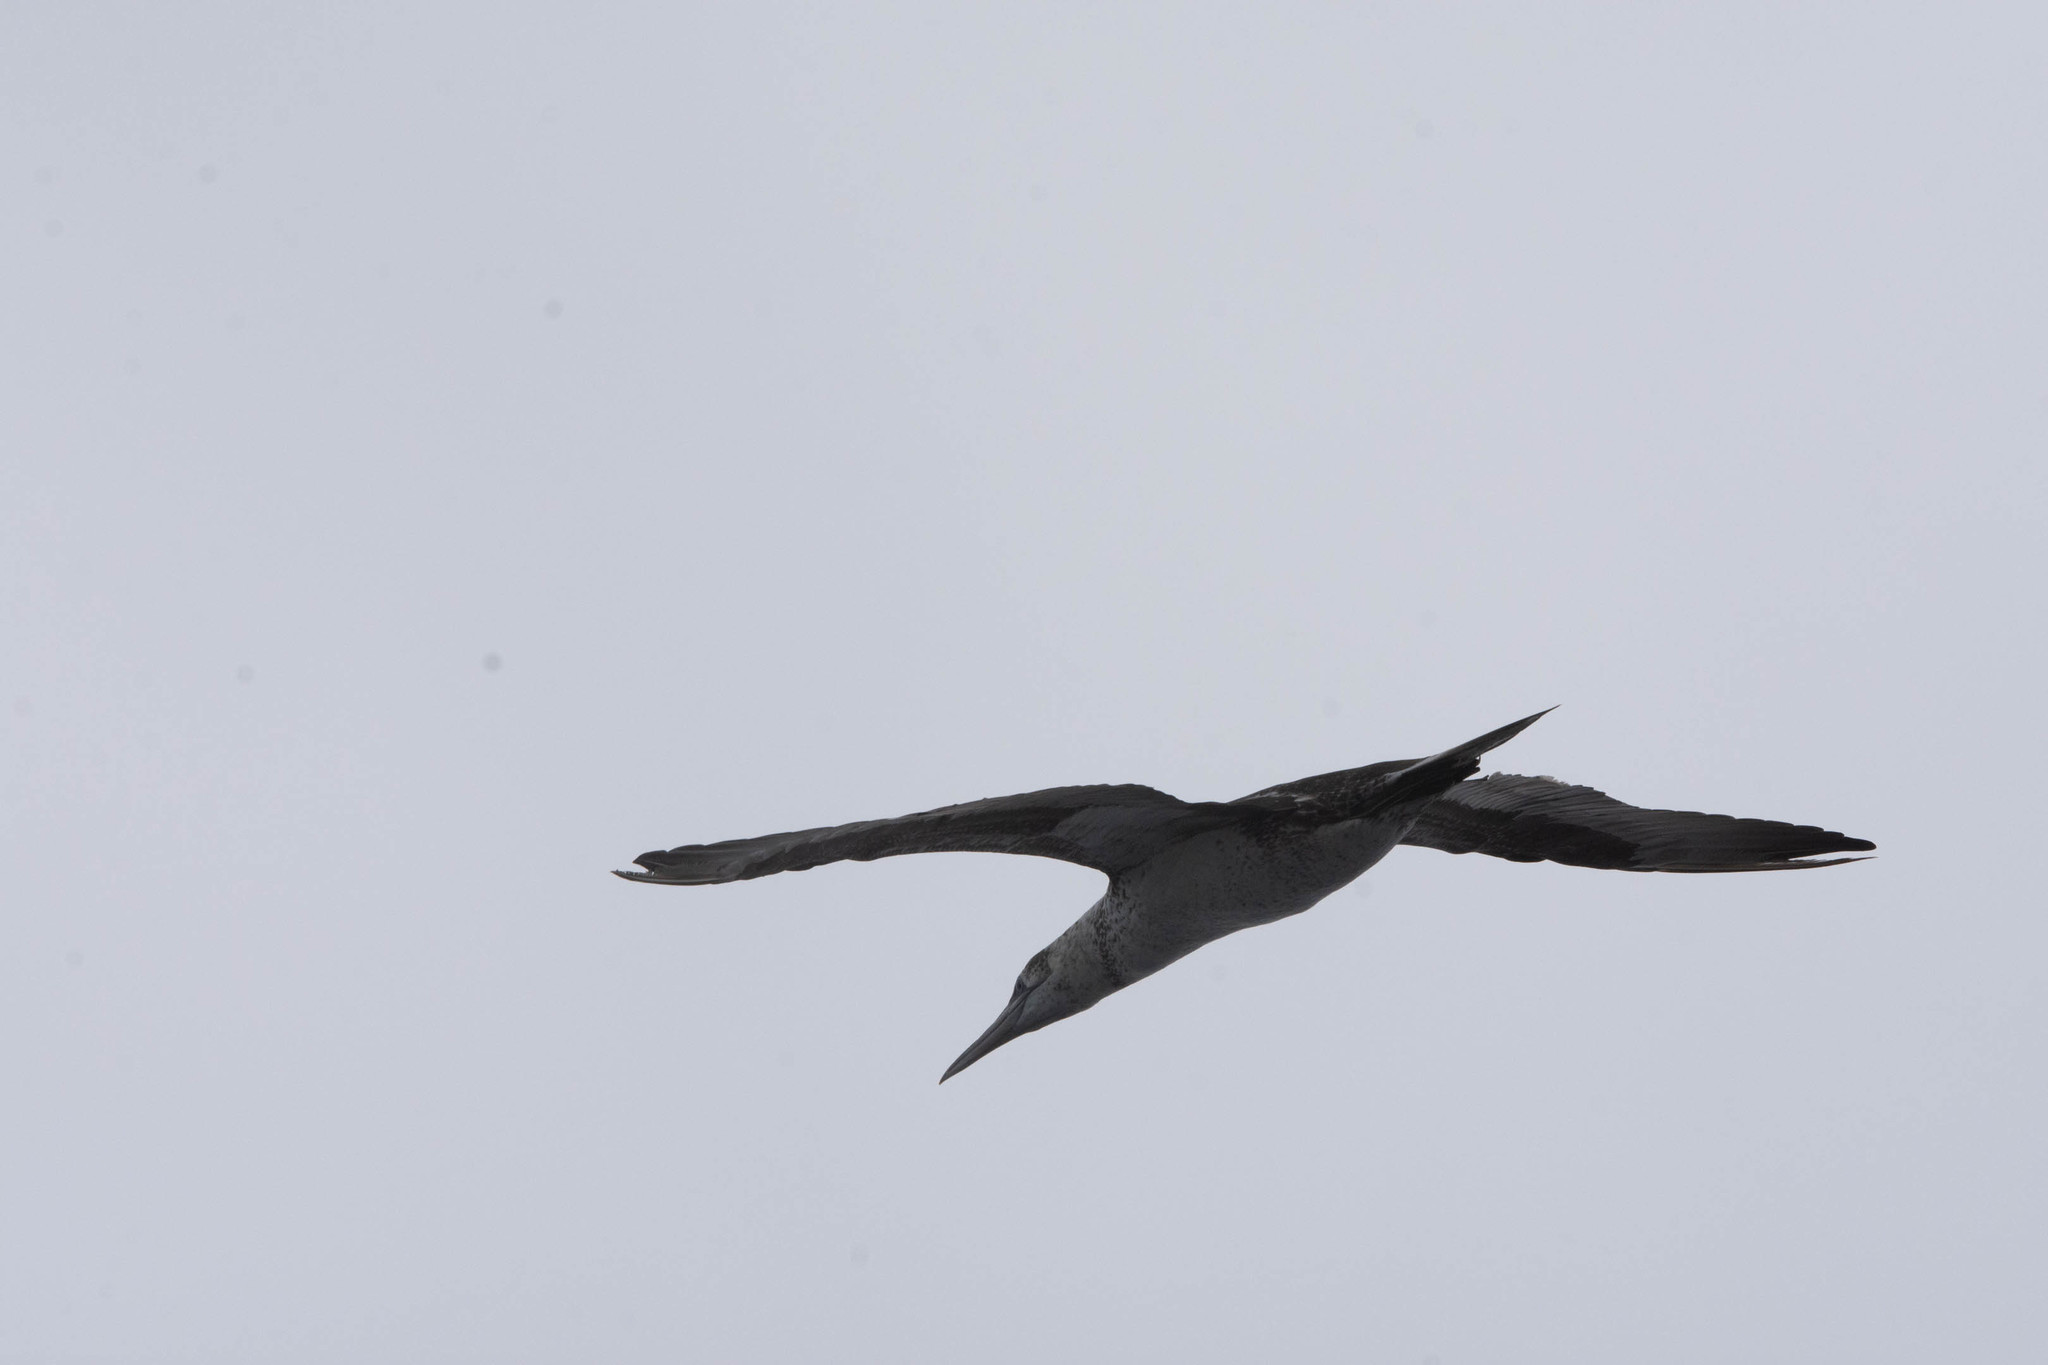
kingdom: Animalia
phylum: Chordata
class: Aves
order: Suliformes
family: Sulidae
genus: Morus
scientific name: Morus bassanus
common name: Northern gannet
